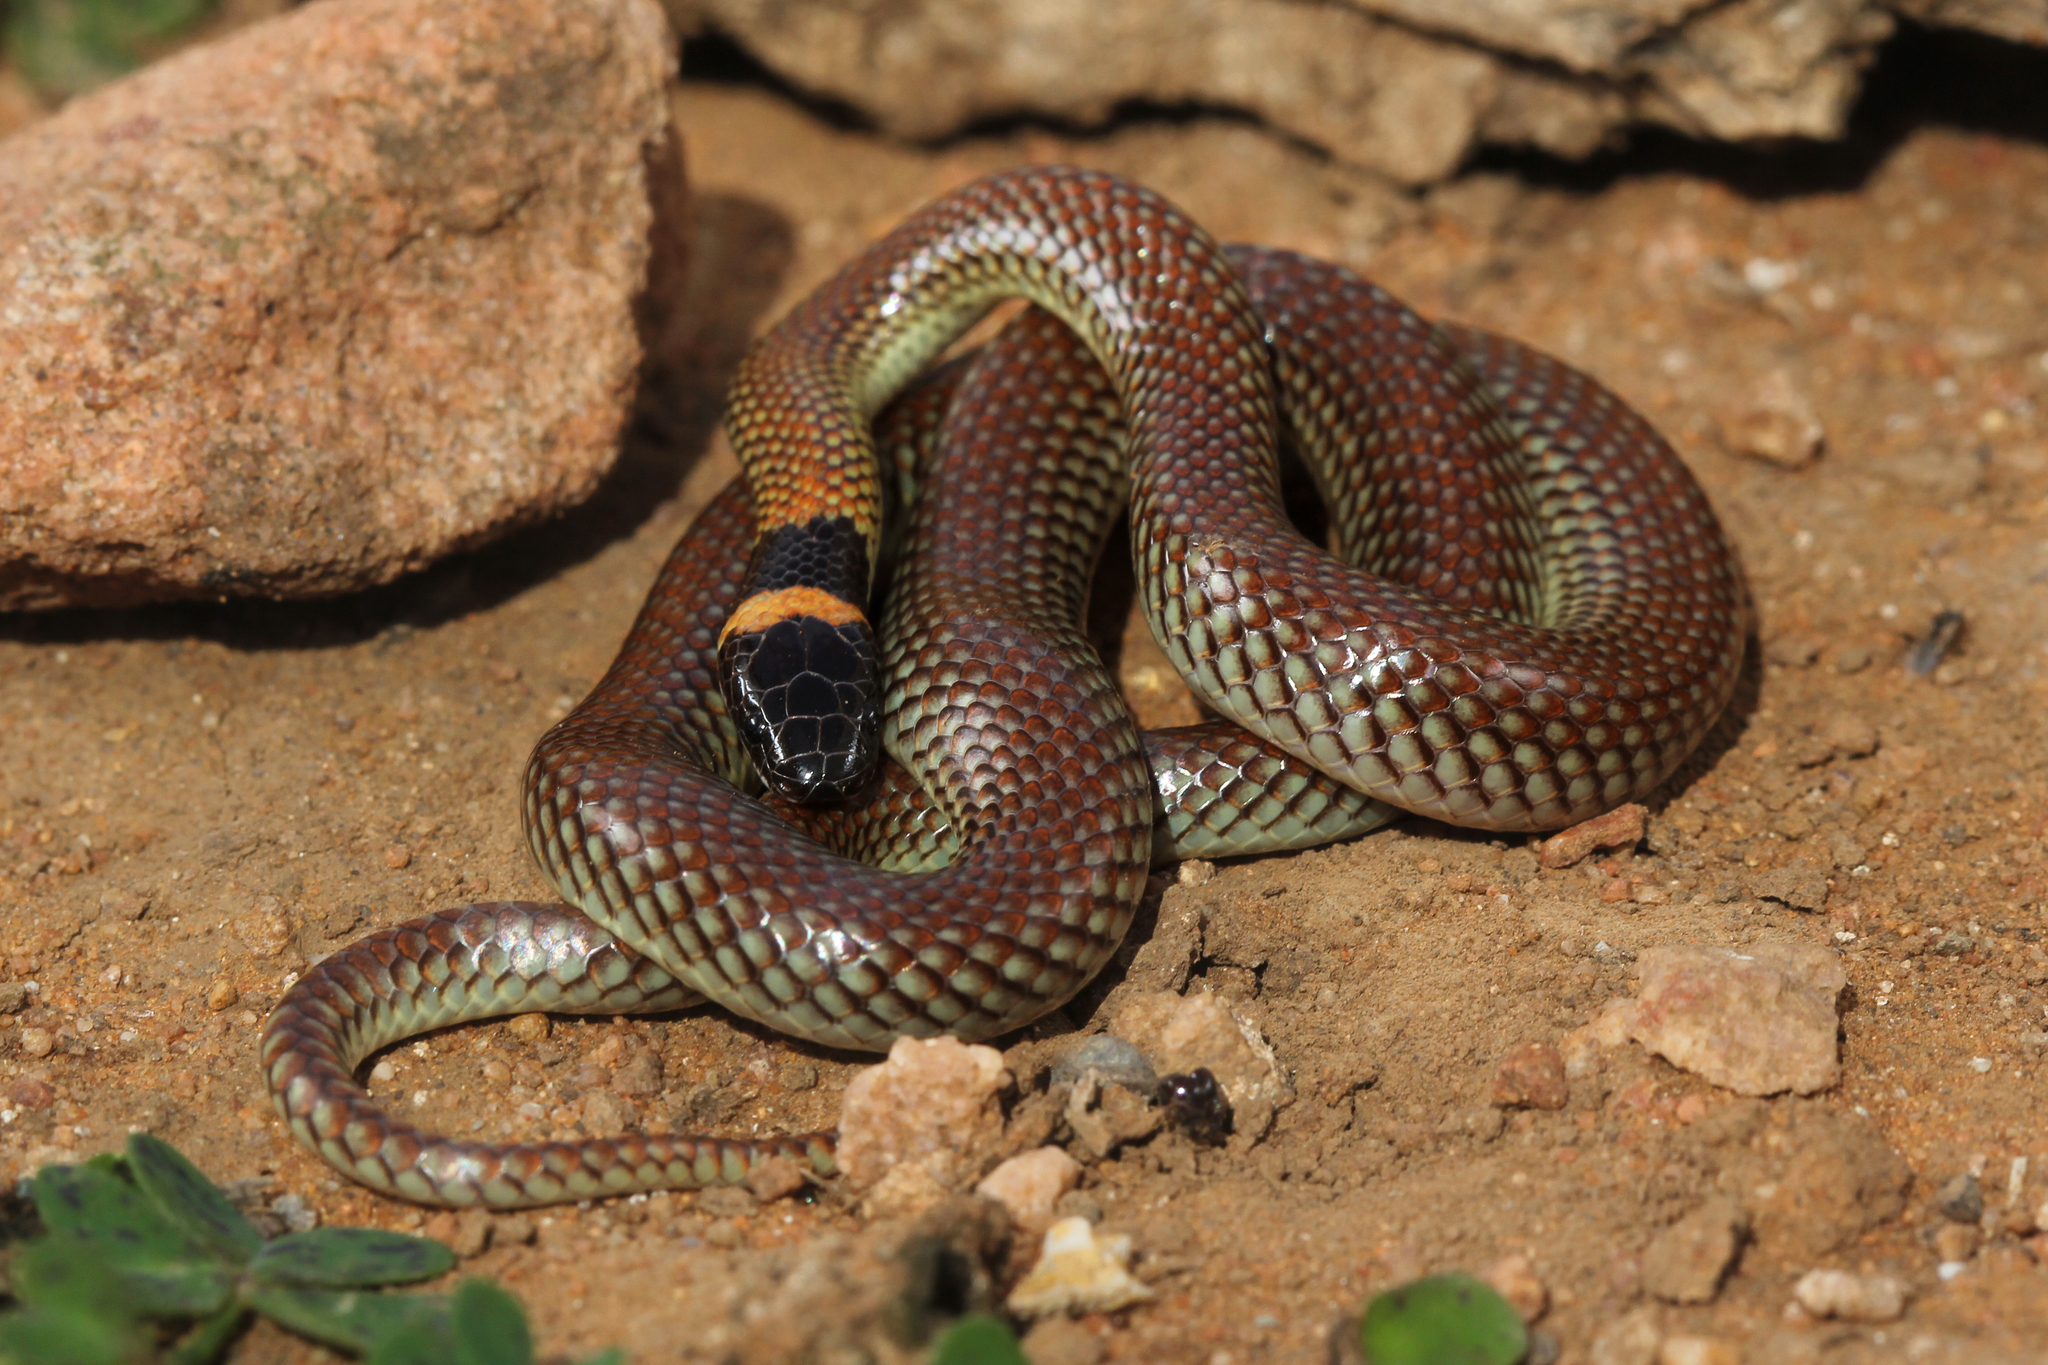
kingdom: Animalia
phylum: Chordata
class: Squamata
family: Elapidae
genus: Furina
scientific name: Furina diadema
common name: Red-naped snake
